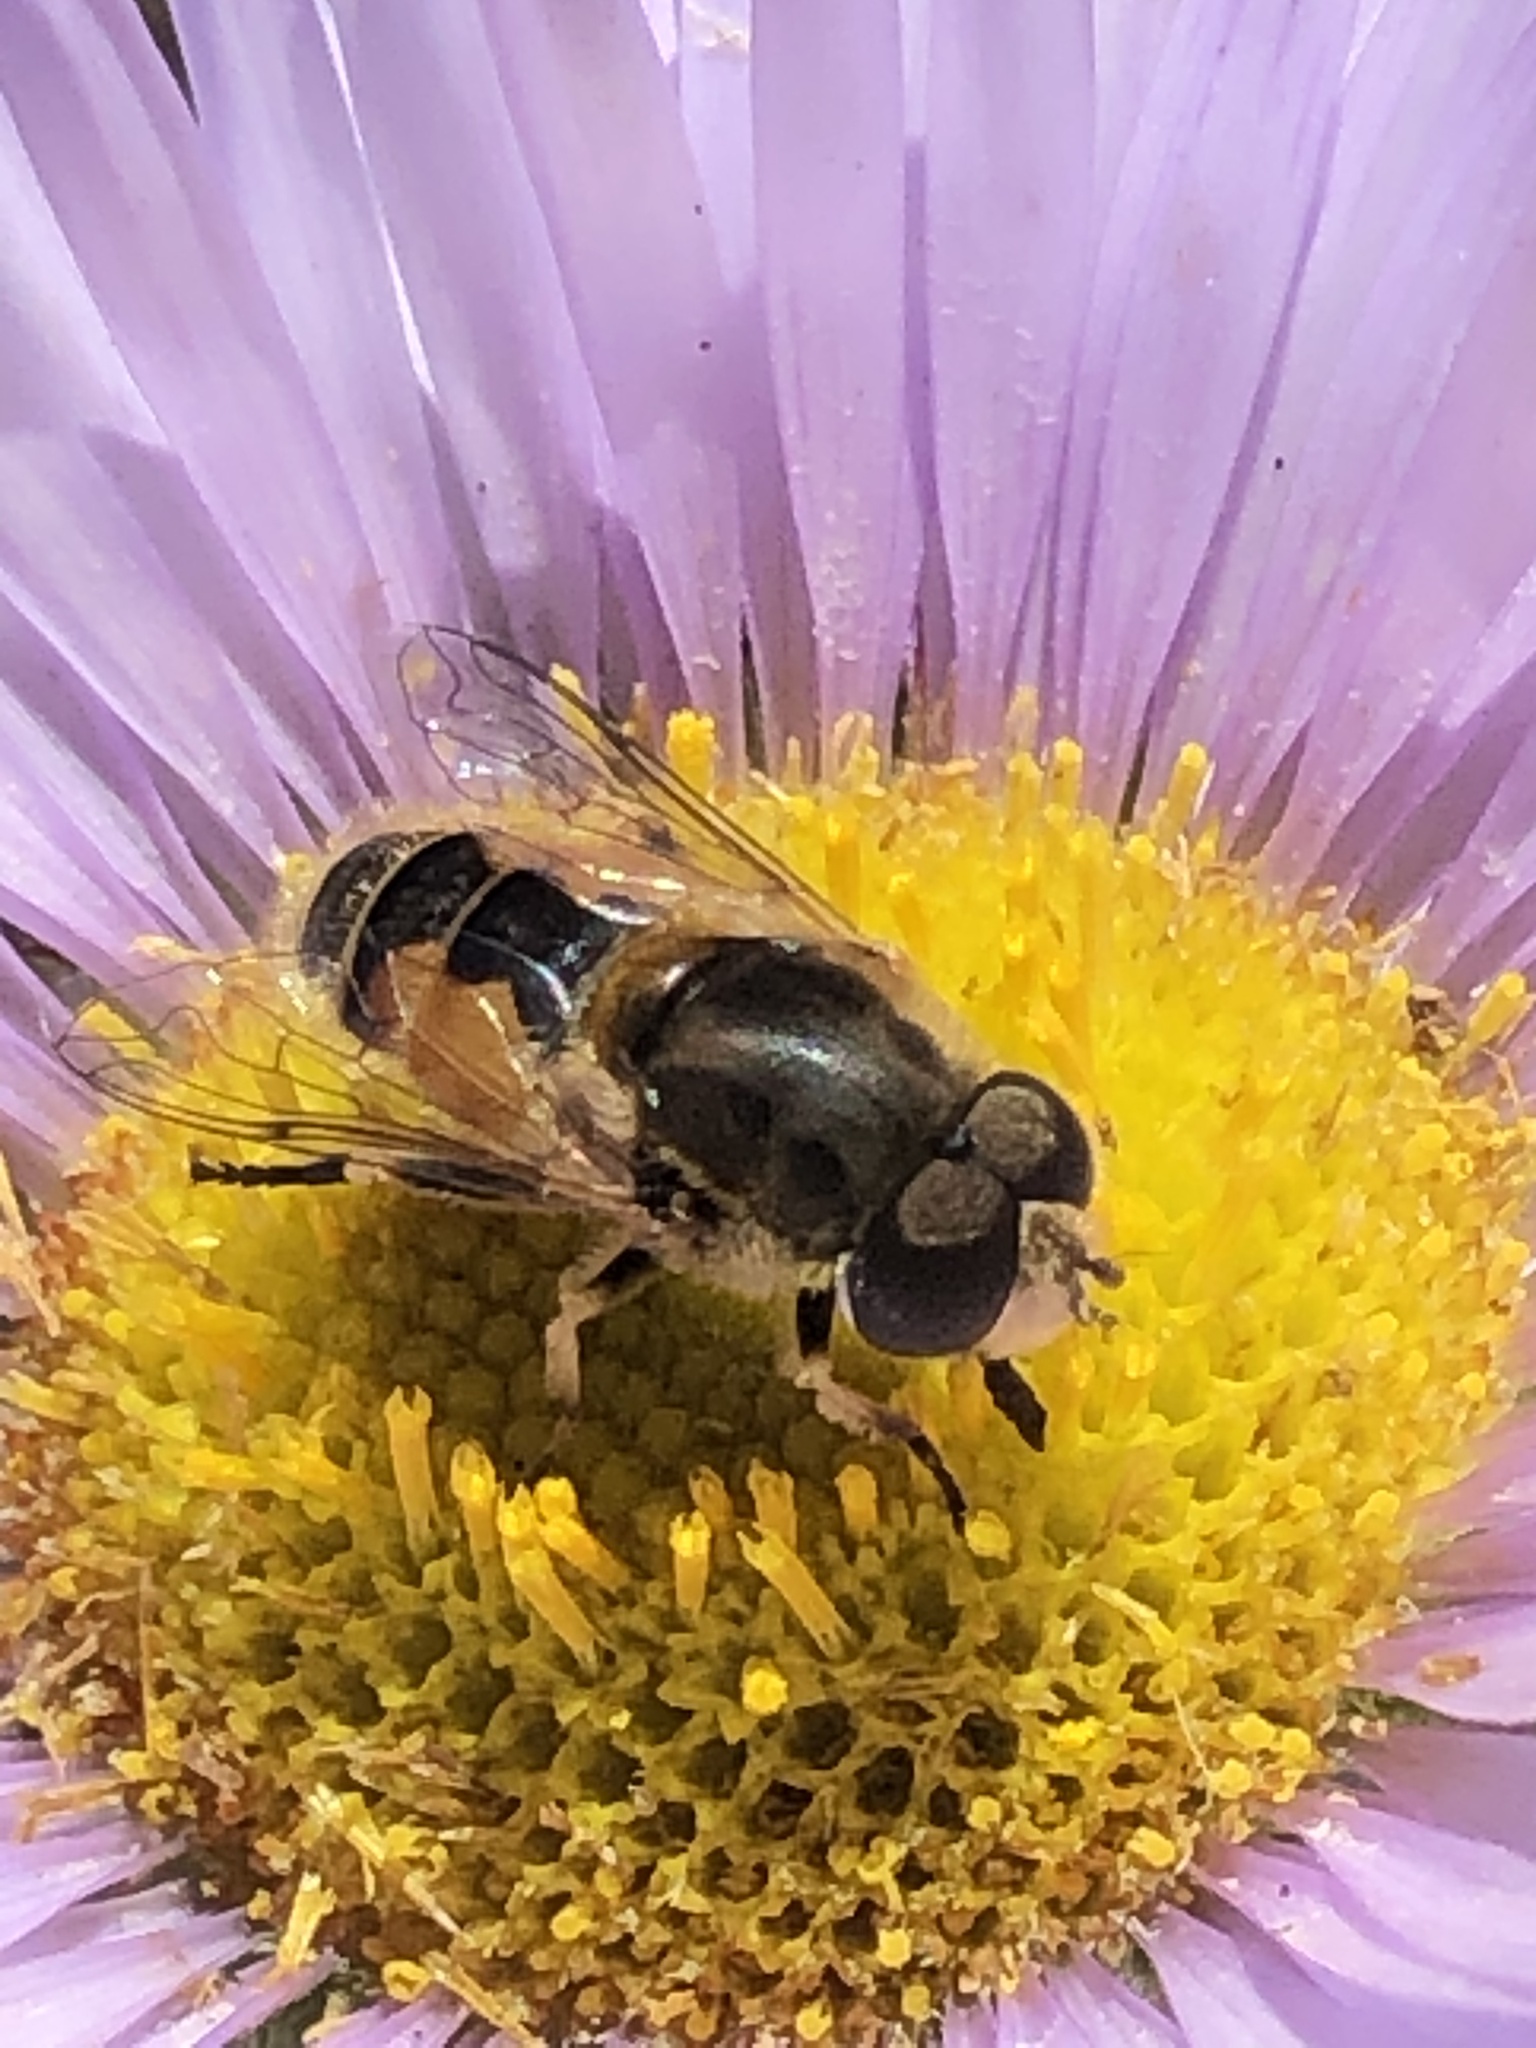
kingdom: Animalia
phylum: Arthropoda
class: Insecta
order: Diptera
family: Syrphidae
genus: Eristalis
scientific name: Eristalis arbustorum
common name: Hover fly
